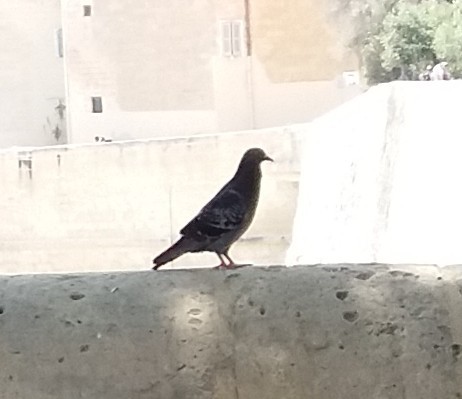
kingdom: Animalia
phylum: Chordata
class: Aves
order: Columbiformes
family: Columbidae
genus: Columba
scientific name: Columba livia
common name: Rock pigeon
